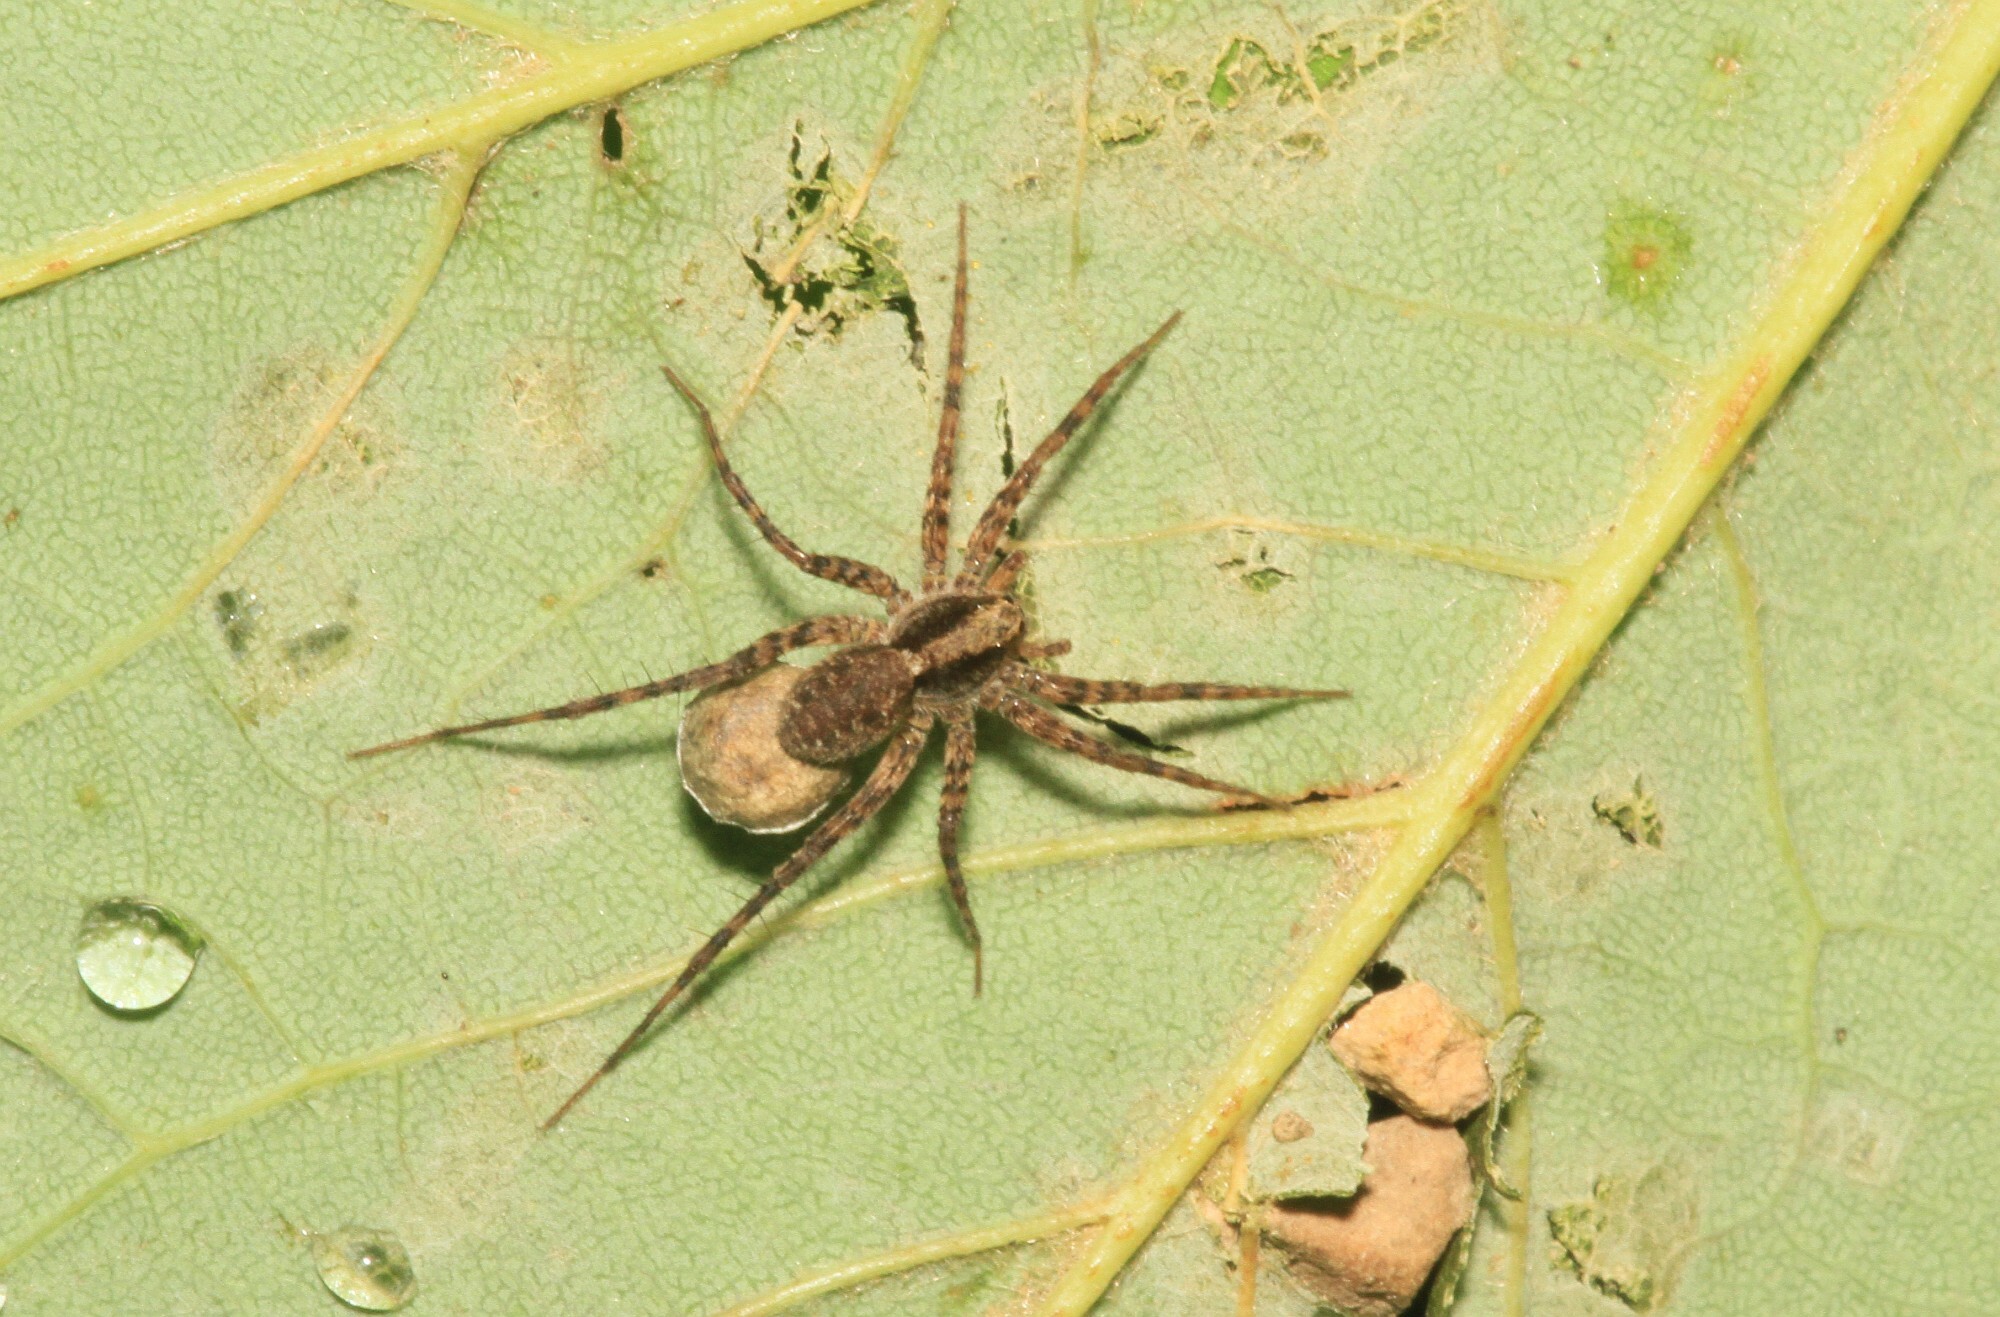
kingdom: Animalia
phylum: Arthropoda
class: Arachnida
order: Araneae
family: Lycosidae
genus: Pardosa
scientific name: Pardosa
